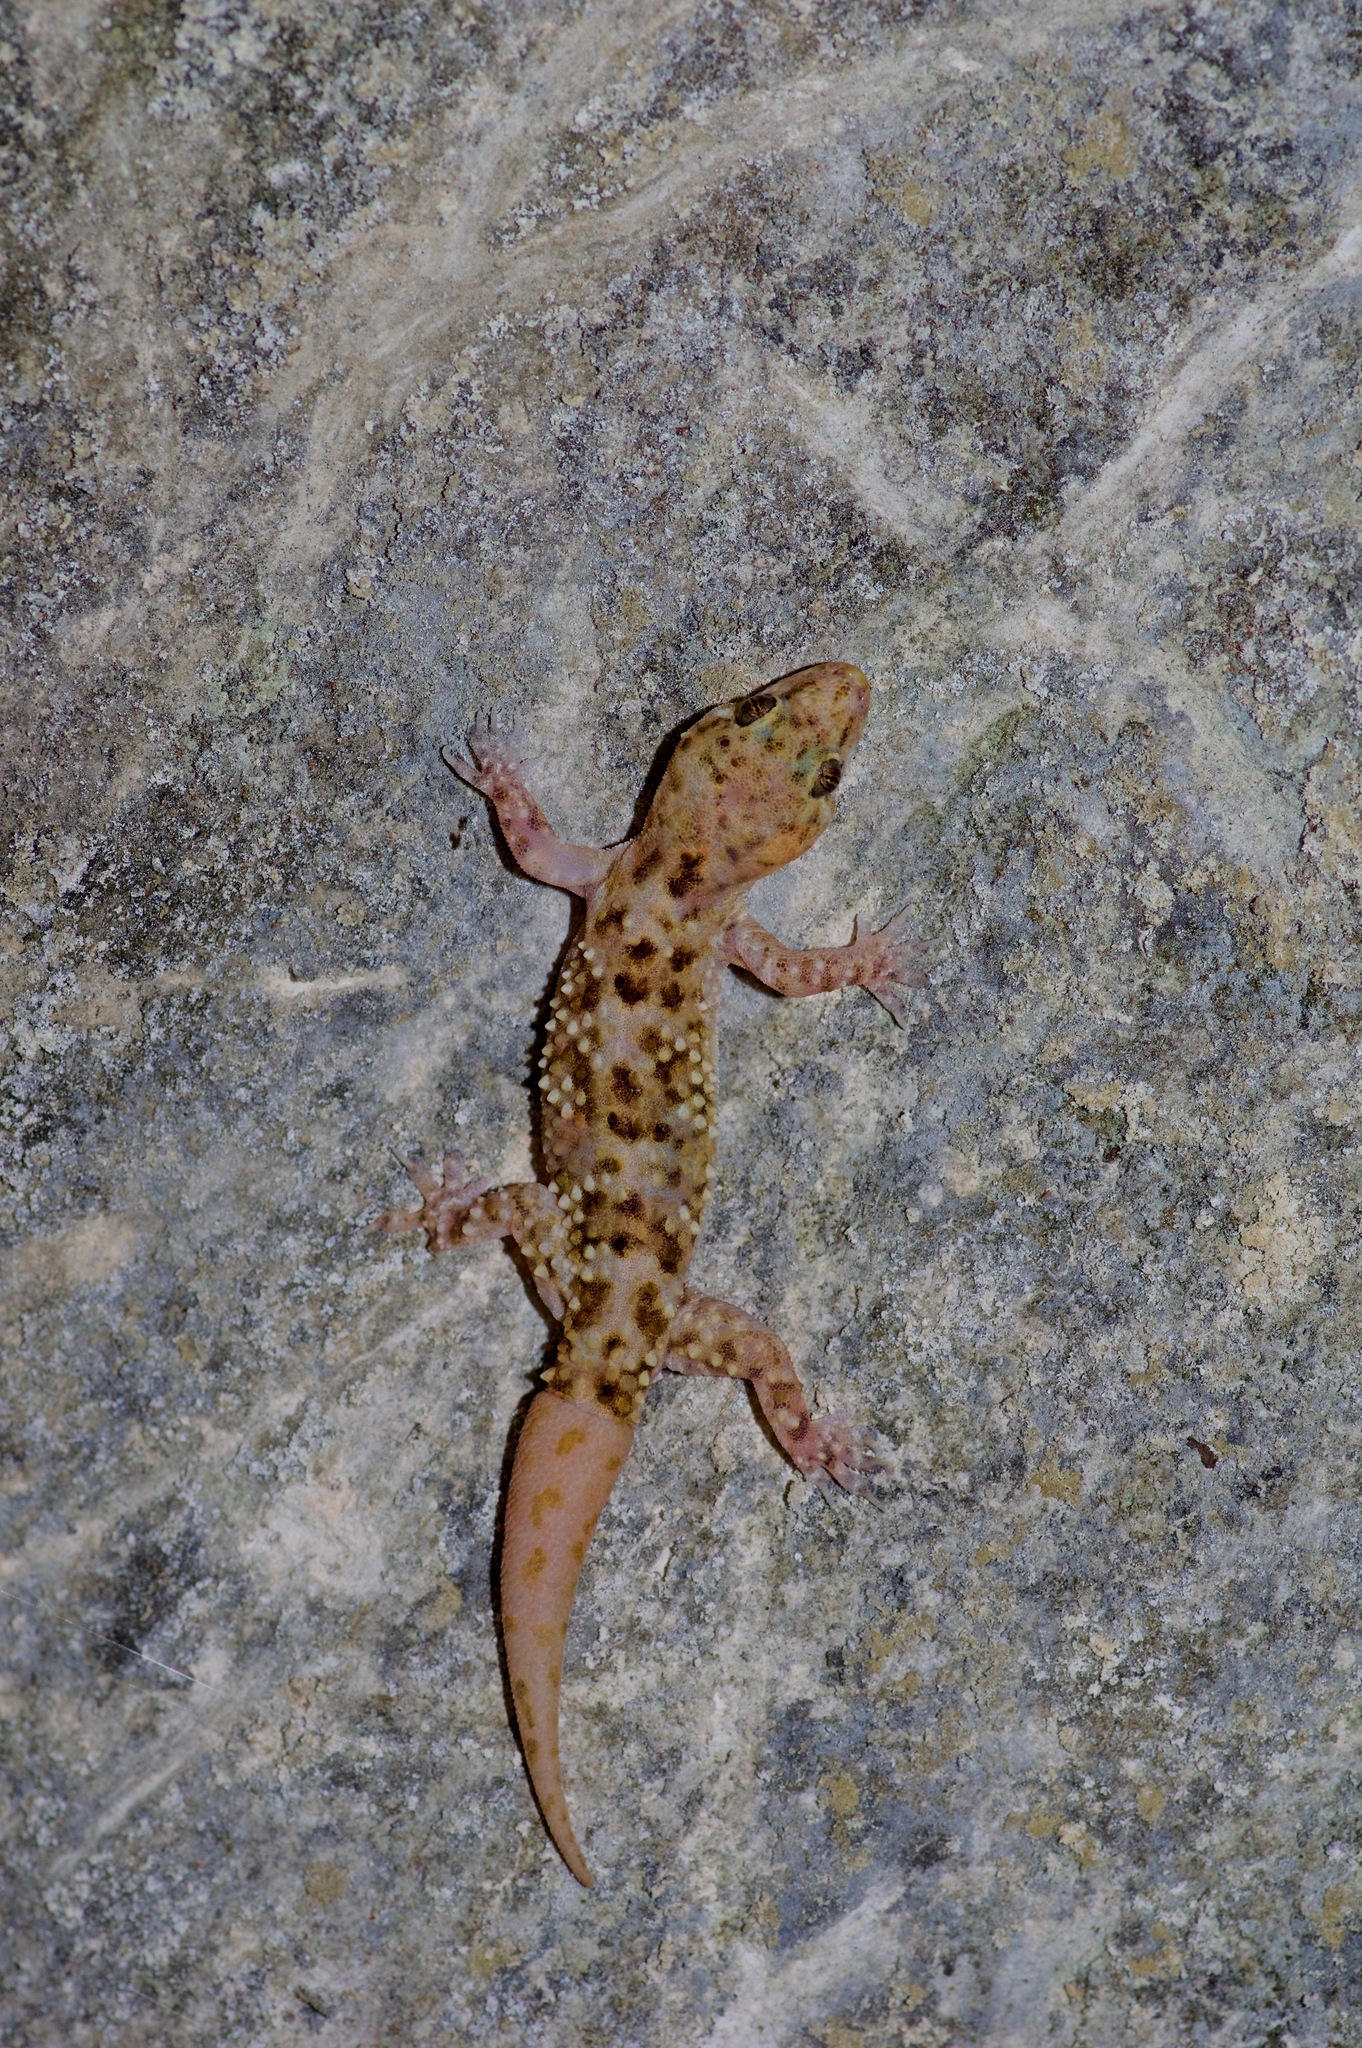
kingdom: Animalia
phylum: Chordata
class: Squamata
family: Gekkonidae
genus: Hemidactylus
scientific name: Hemidactylus turcicus
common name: Turkish gecko
